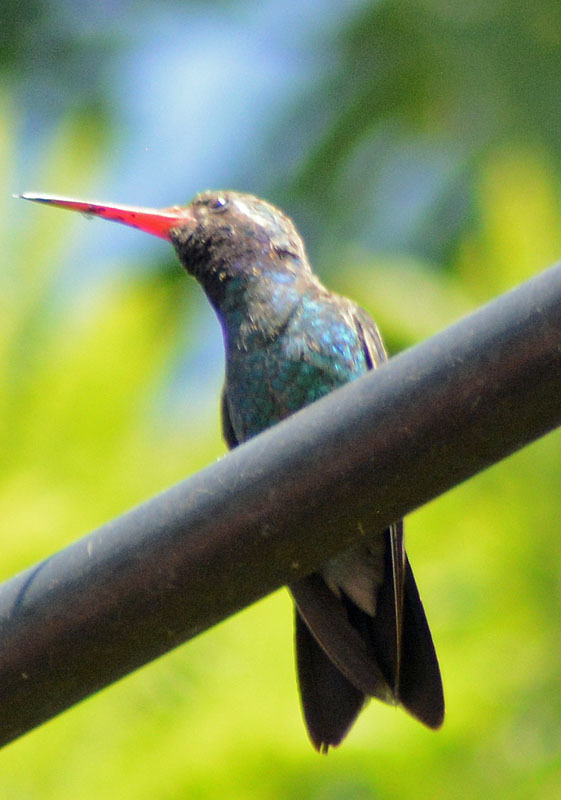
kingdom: Animalia
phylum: Chordata
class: Aves
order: Apodiformes
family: Trochilidae
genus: Cynanthus
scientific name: Cynanthus latirostris
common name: Broad-billed hummingbird
